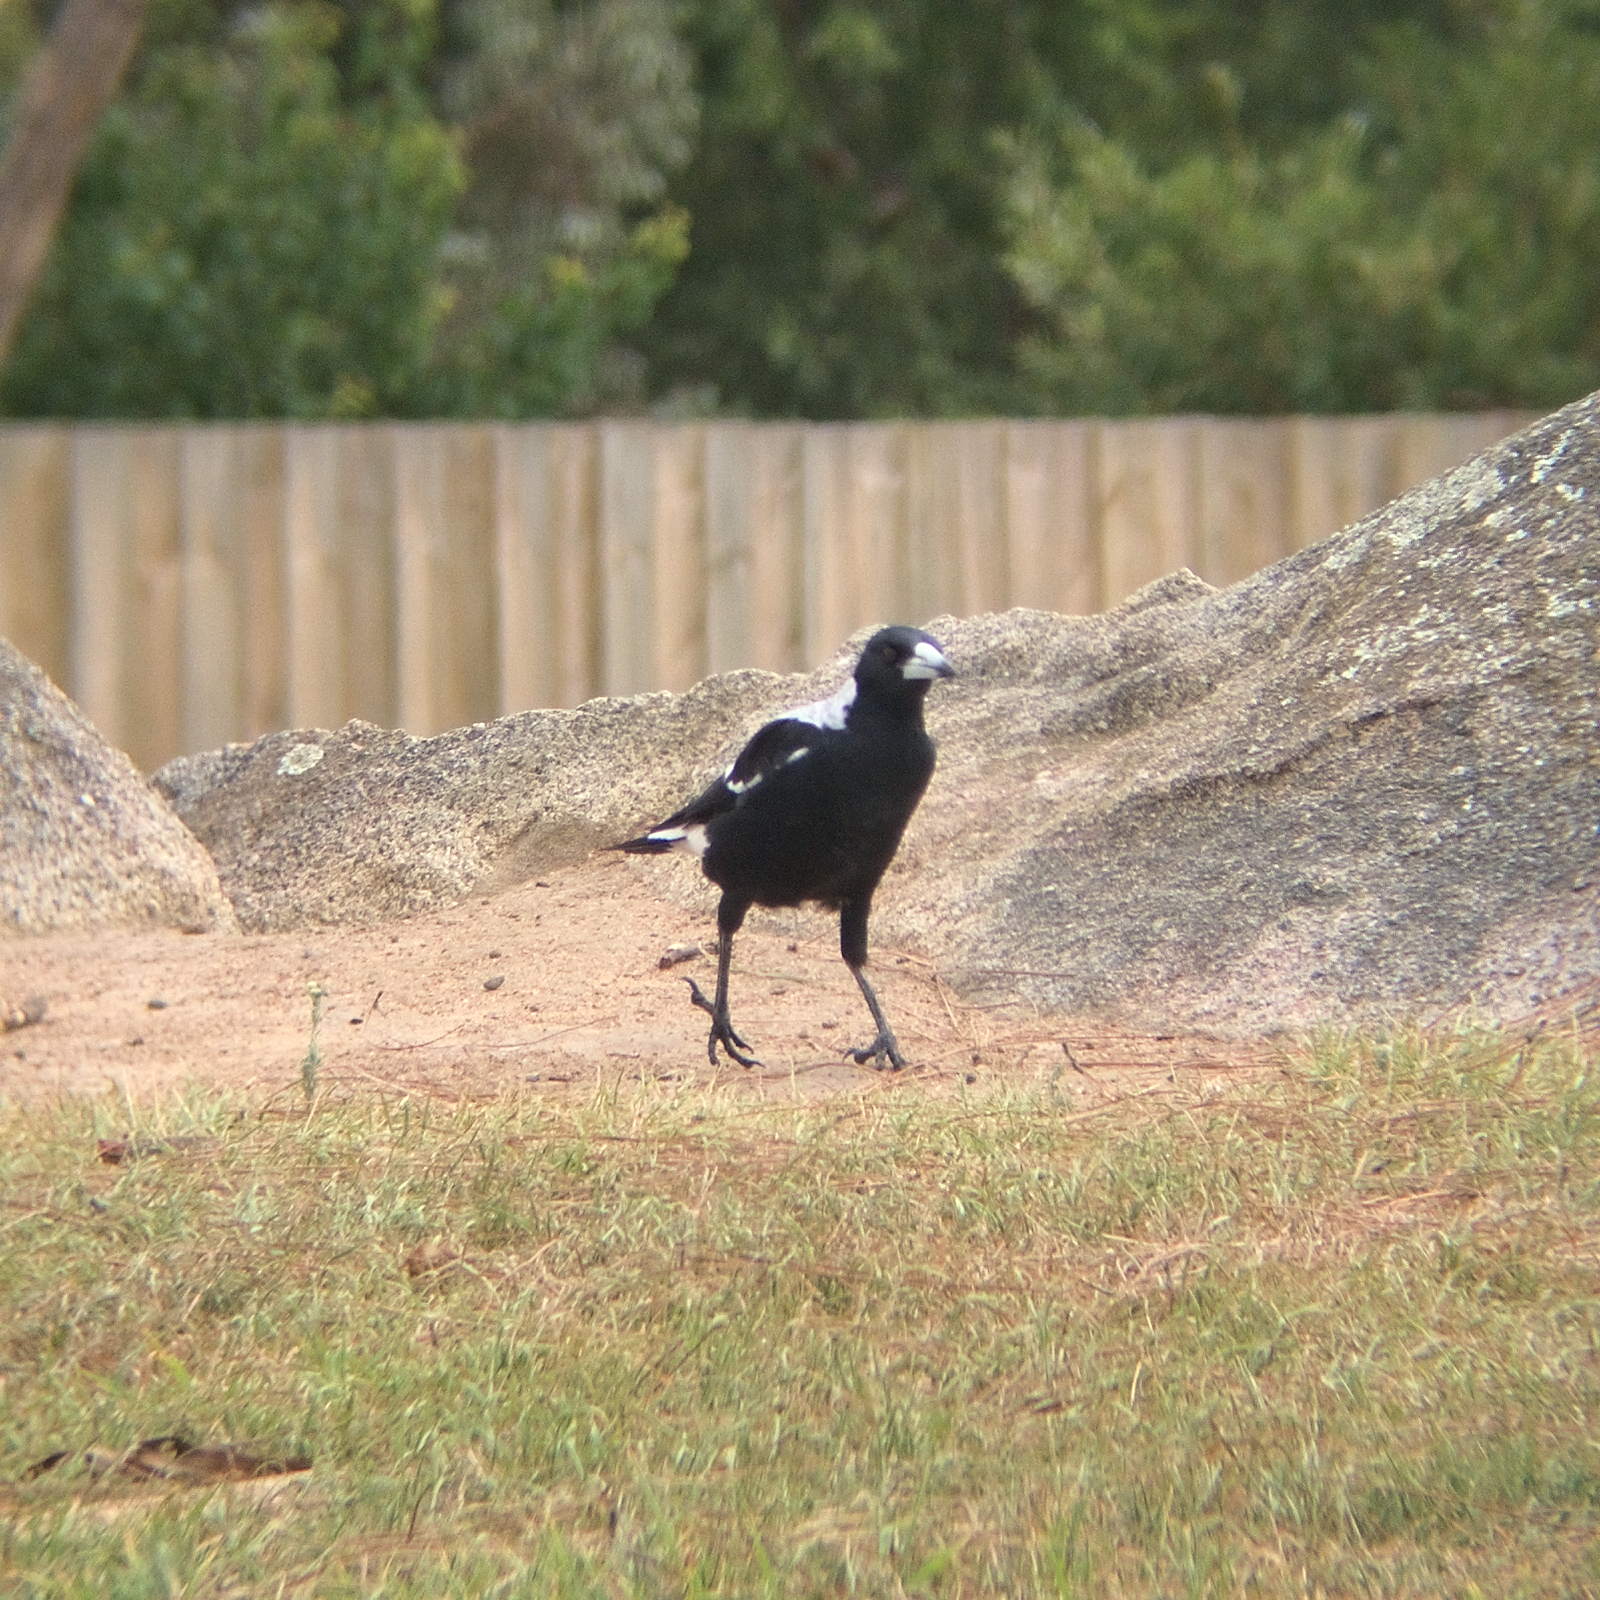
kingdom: Animalia
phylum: Chordata
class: Aves
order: Passeriformes
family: Cracticidae
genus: Gymnorhina
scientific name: Gymnorhina tibicen
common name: Australian magpie
